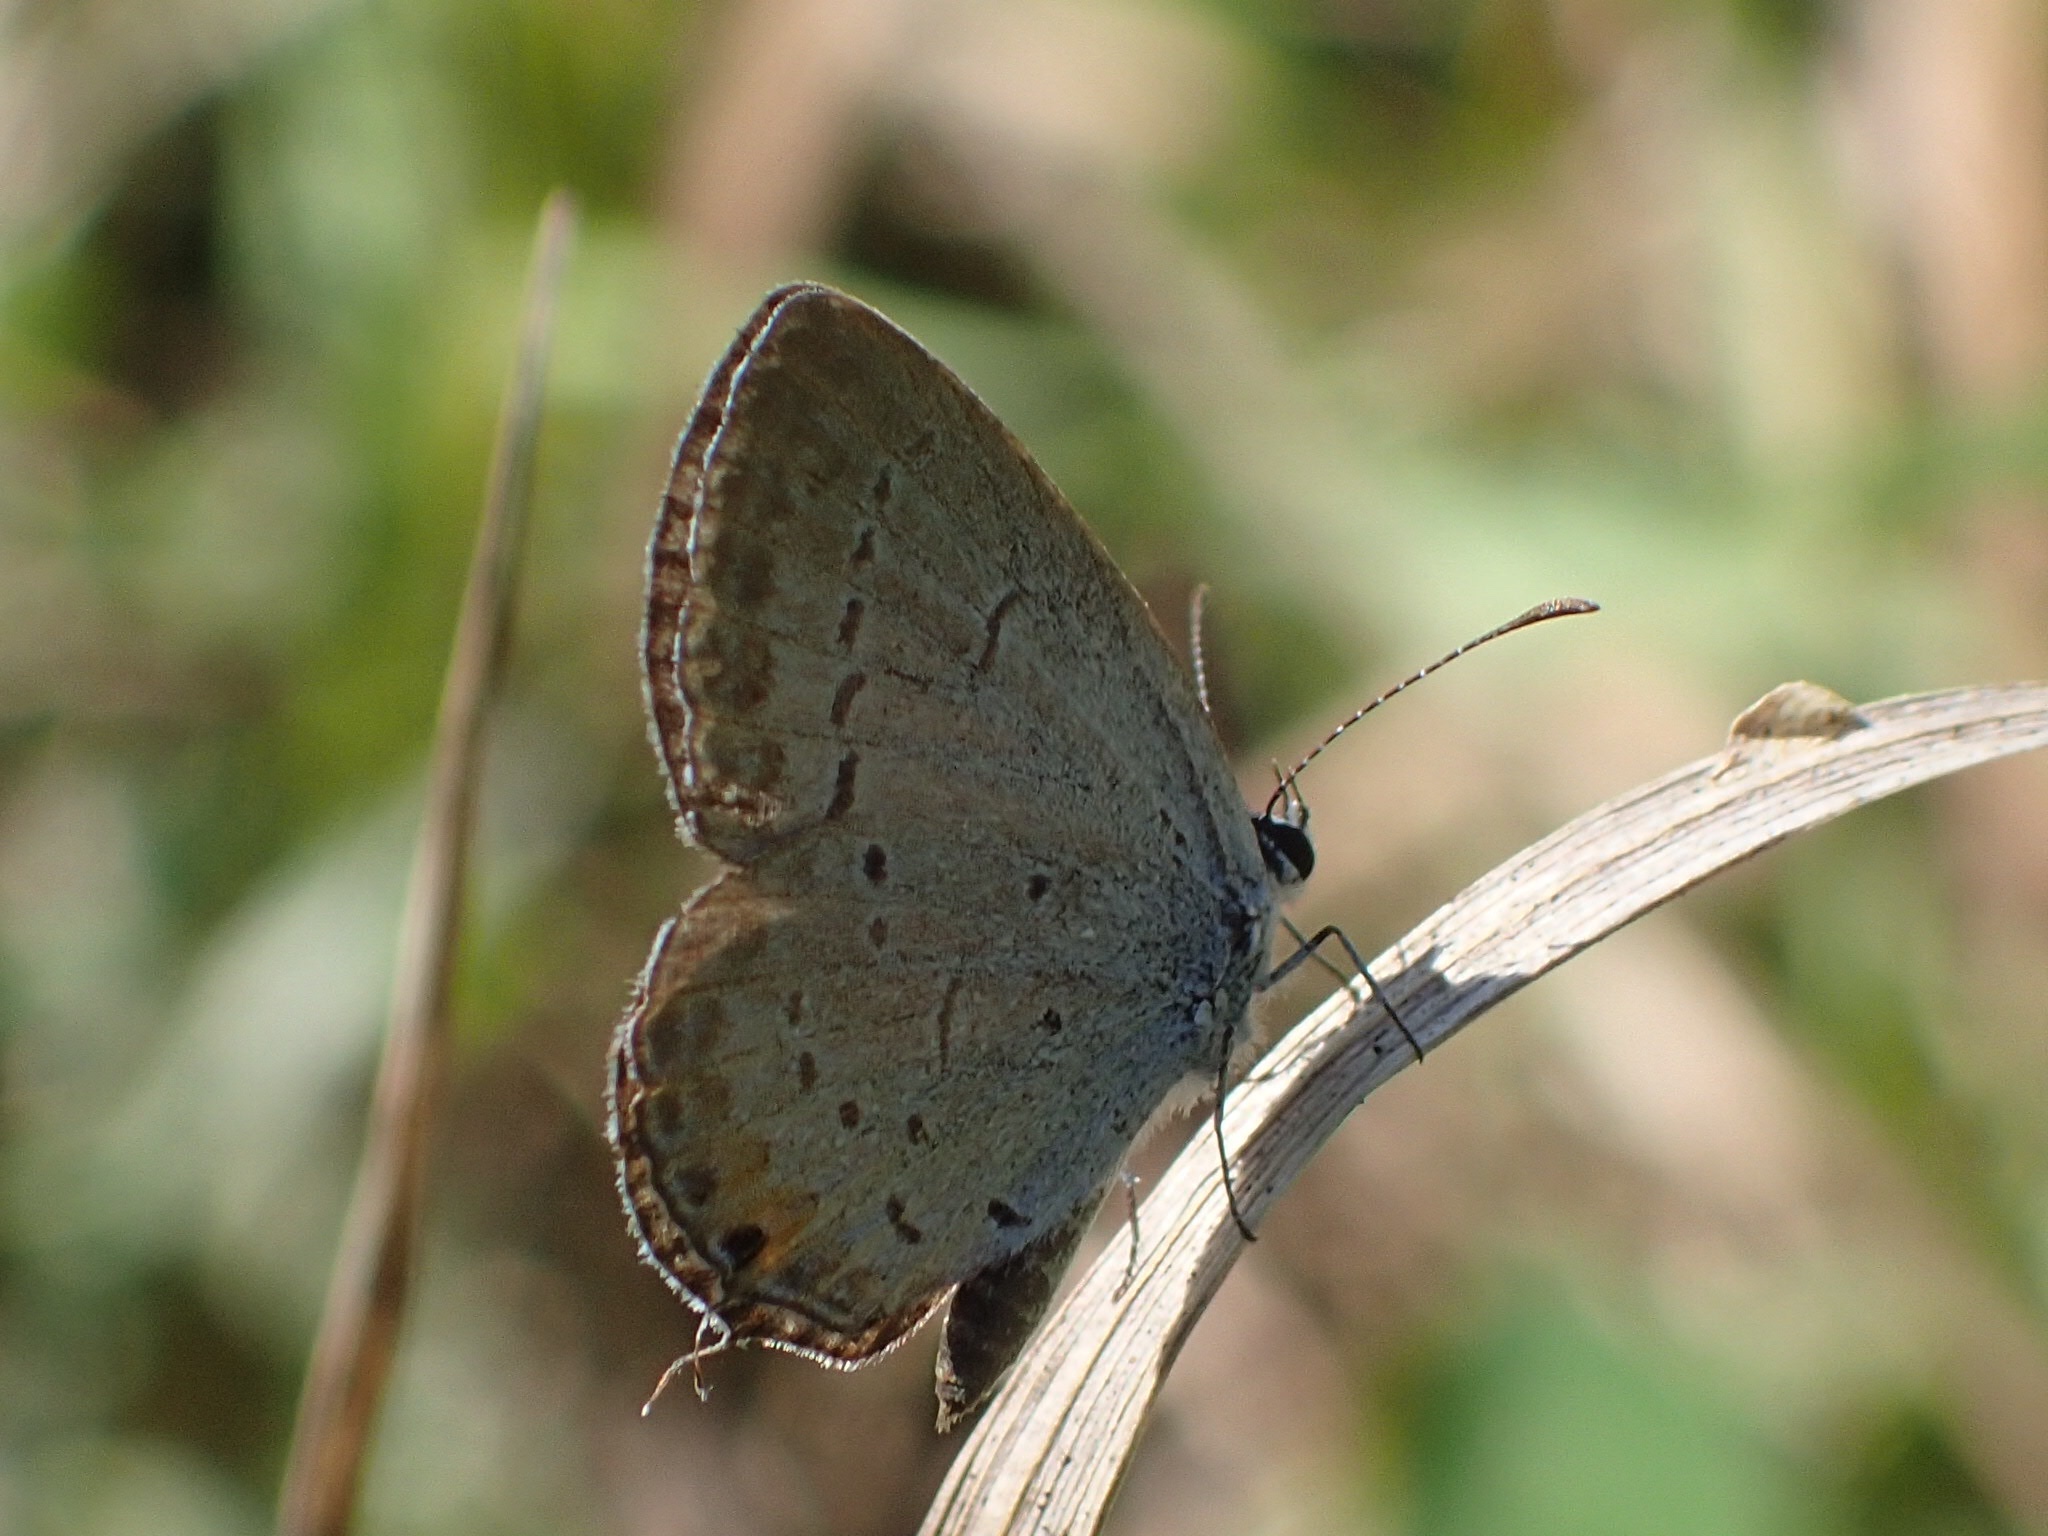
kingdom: Animalia
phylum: Arthropoda
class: Insecta
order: Lepidoptera
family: Lycaenidae
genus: Elkalyce
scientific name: Elkalyce comyntas
